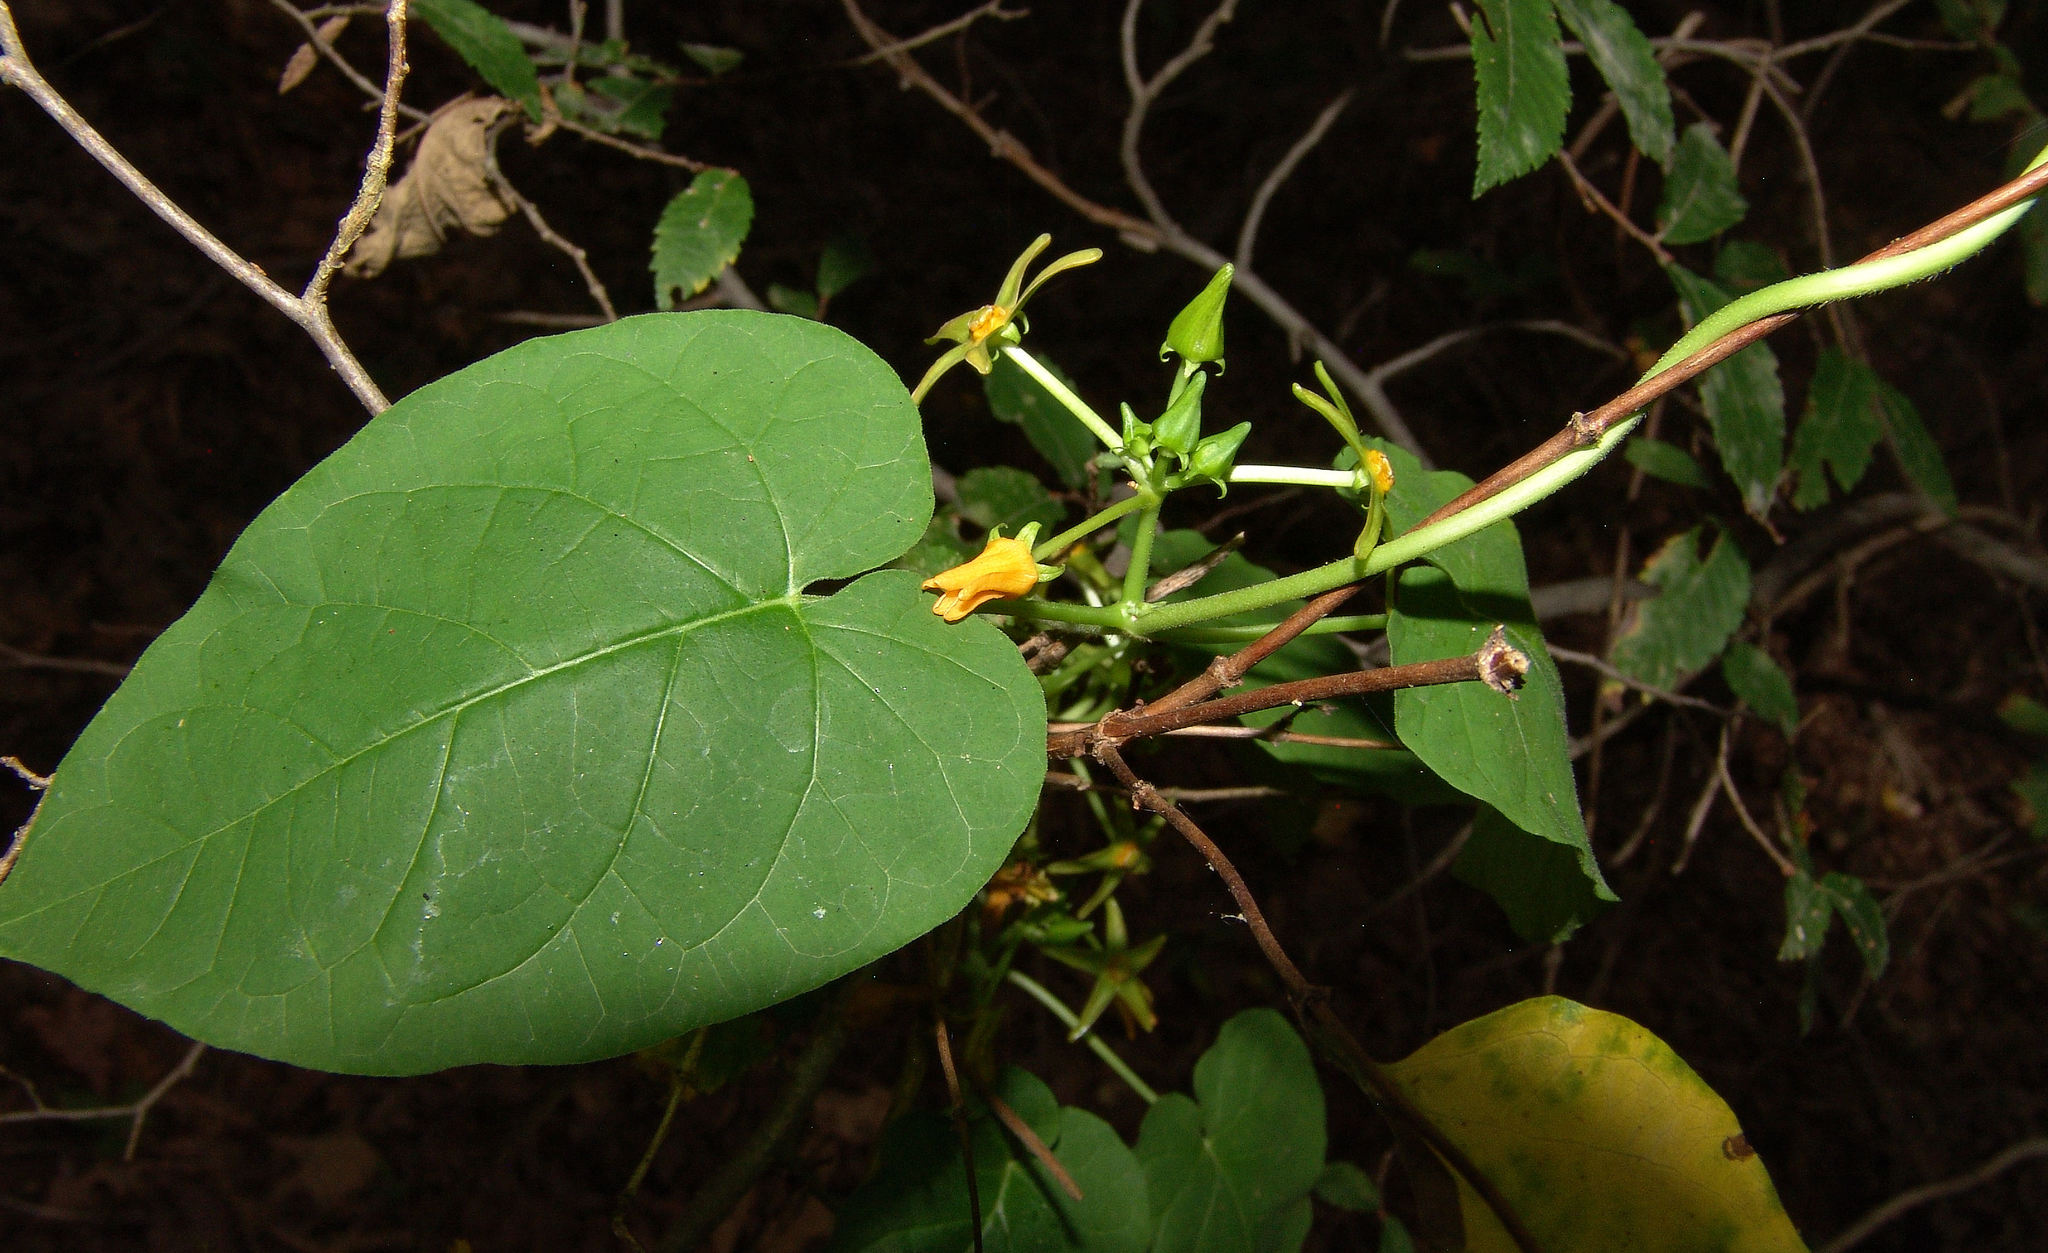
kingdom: Plantae
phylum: Tracheophyta
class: Magnoliopsida
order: Gentianales
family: Apocynaceae
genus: Gonolobus
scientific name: Gonolobus suberosus
